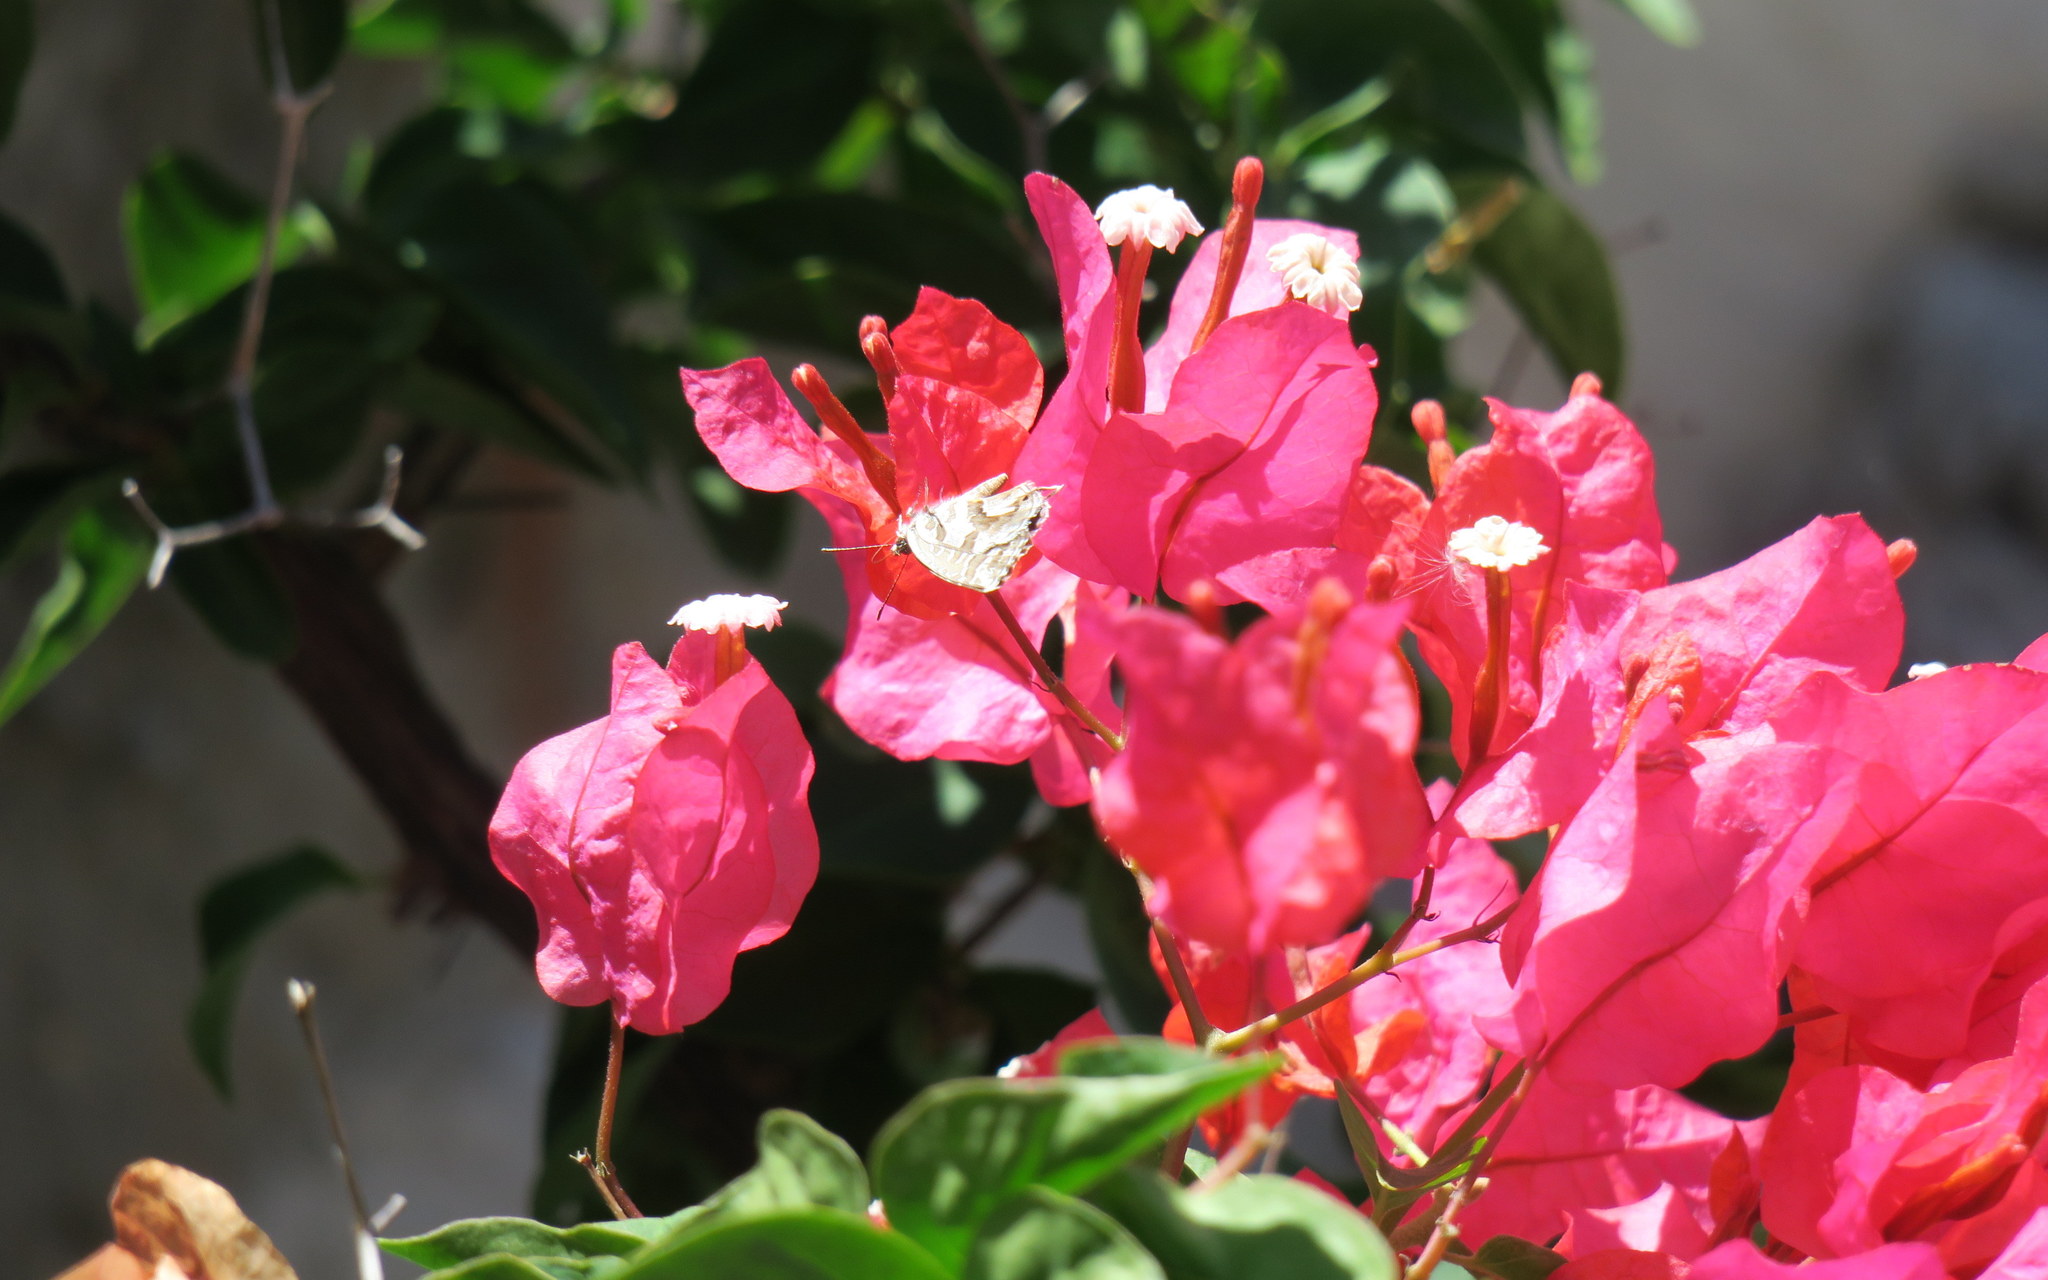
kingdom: Animalia
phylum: Arthropoda
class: Insecta
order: Lepidoptera
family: Lycaenidae
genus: Cacyreus
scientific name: Cacyreus marshalli
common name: Geranium bronze
